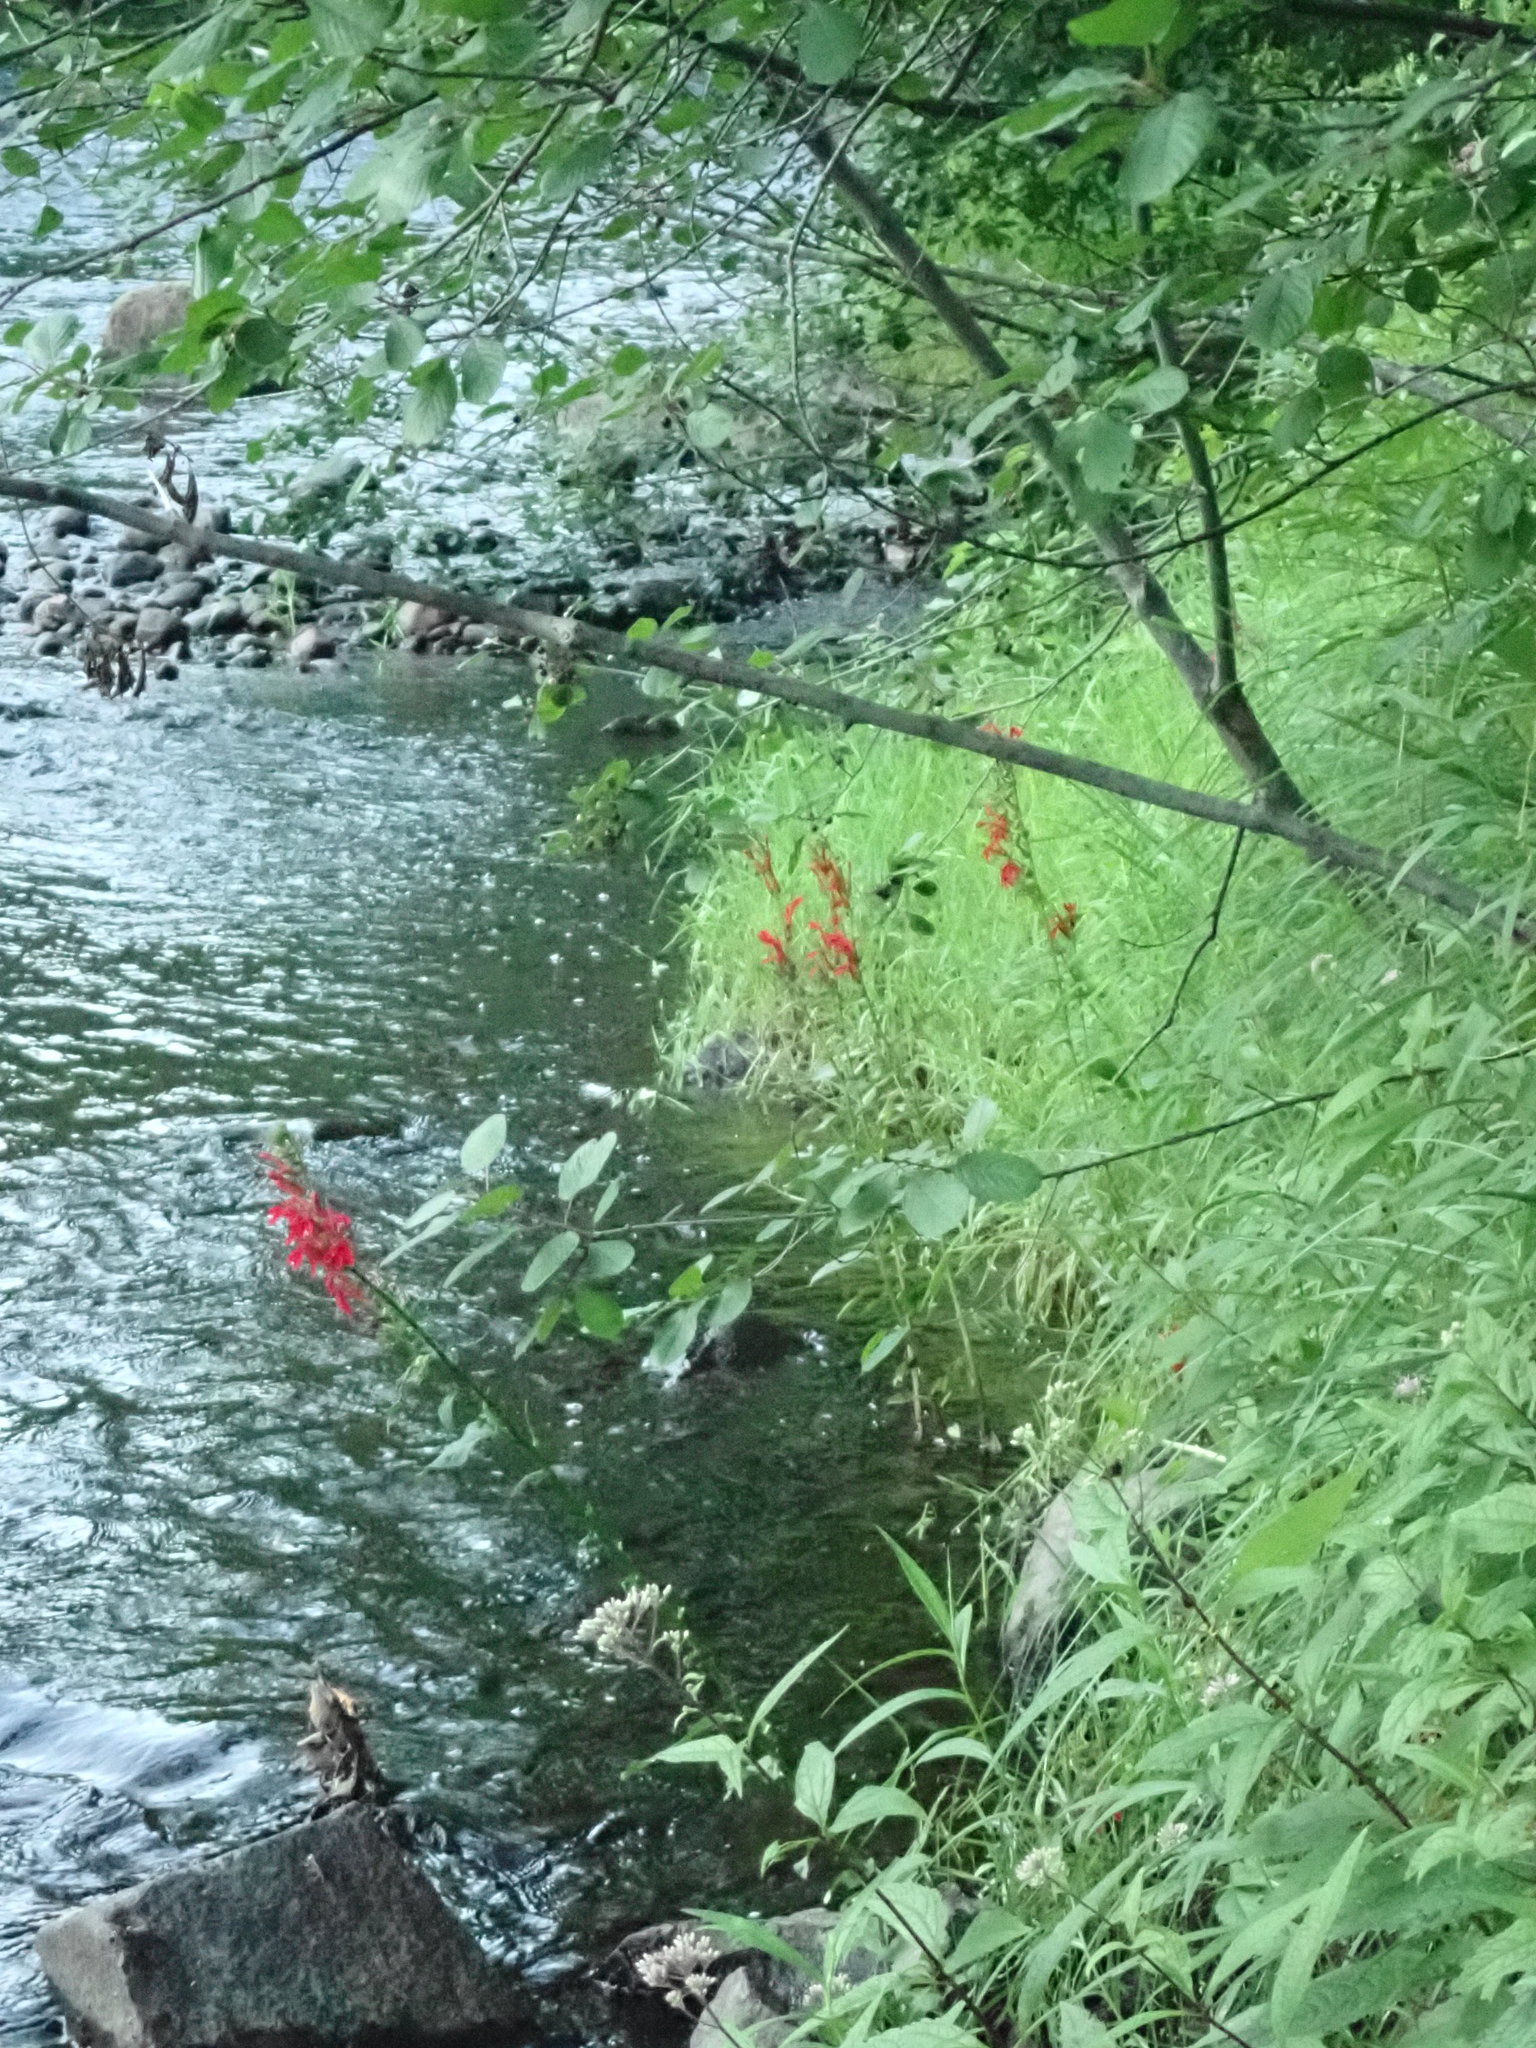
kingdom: Plantae
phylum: Tracheophyta
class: Magnoliopsida
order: Asterales
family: Campanulaceae
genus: Lobelia
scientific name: Lobelia cardinalis
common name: Cardinal flower
